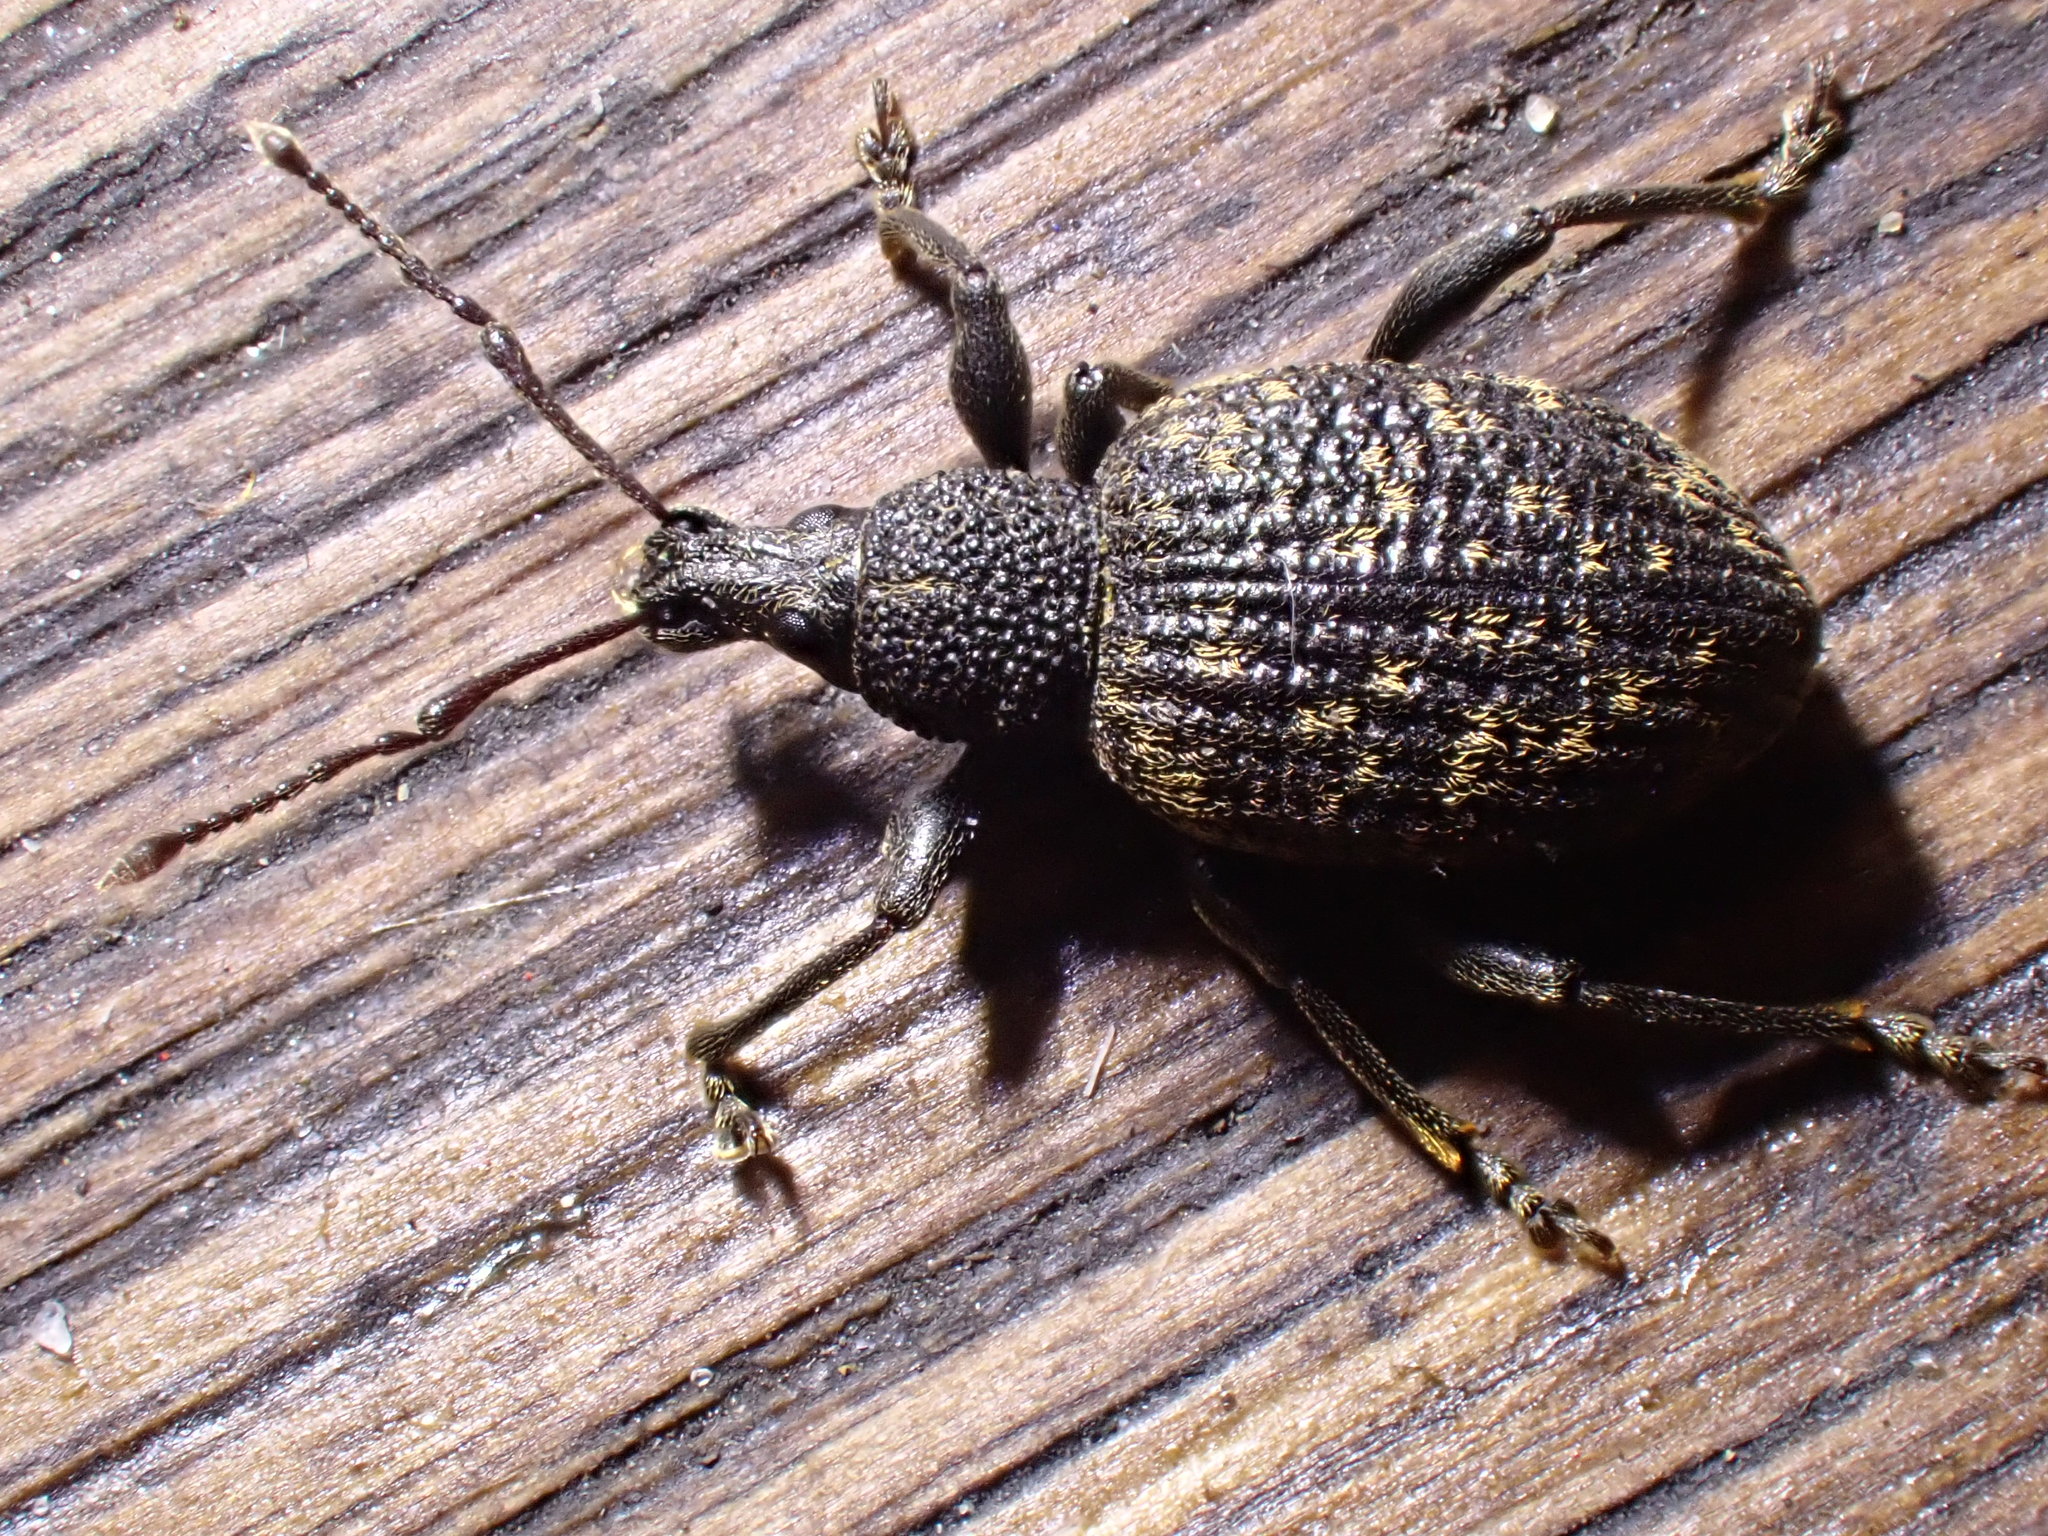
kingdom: Animalia
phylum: Arthropoda
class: Insecta
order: Coleoptera
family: Curculionidae
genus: Otiorhynchus
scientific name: Otiorhynchus sulcatus
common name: Black vine weevil
